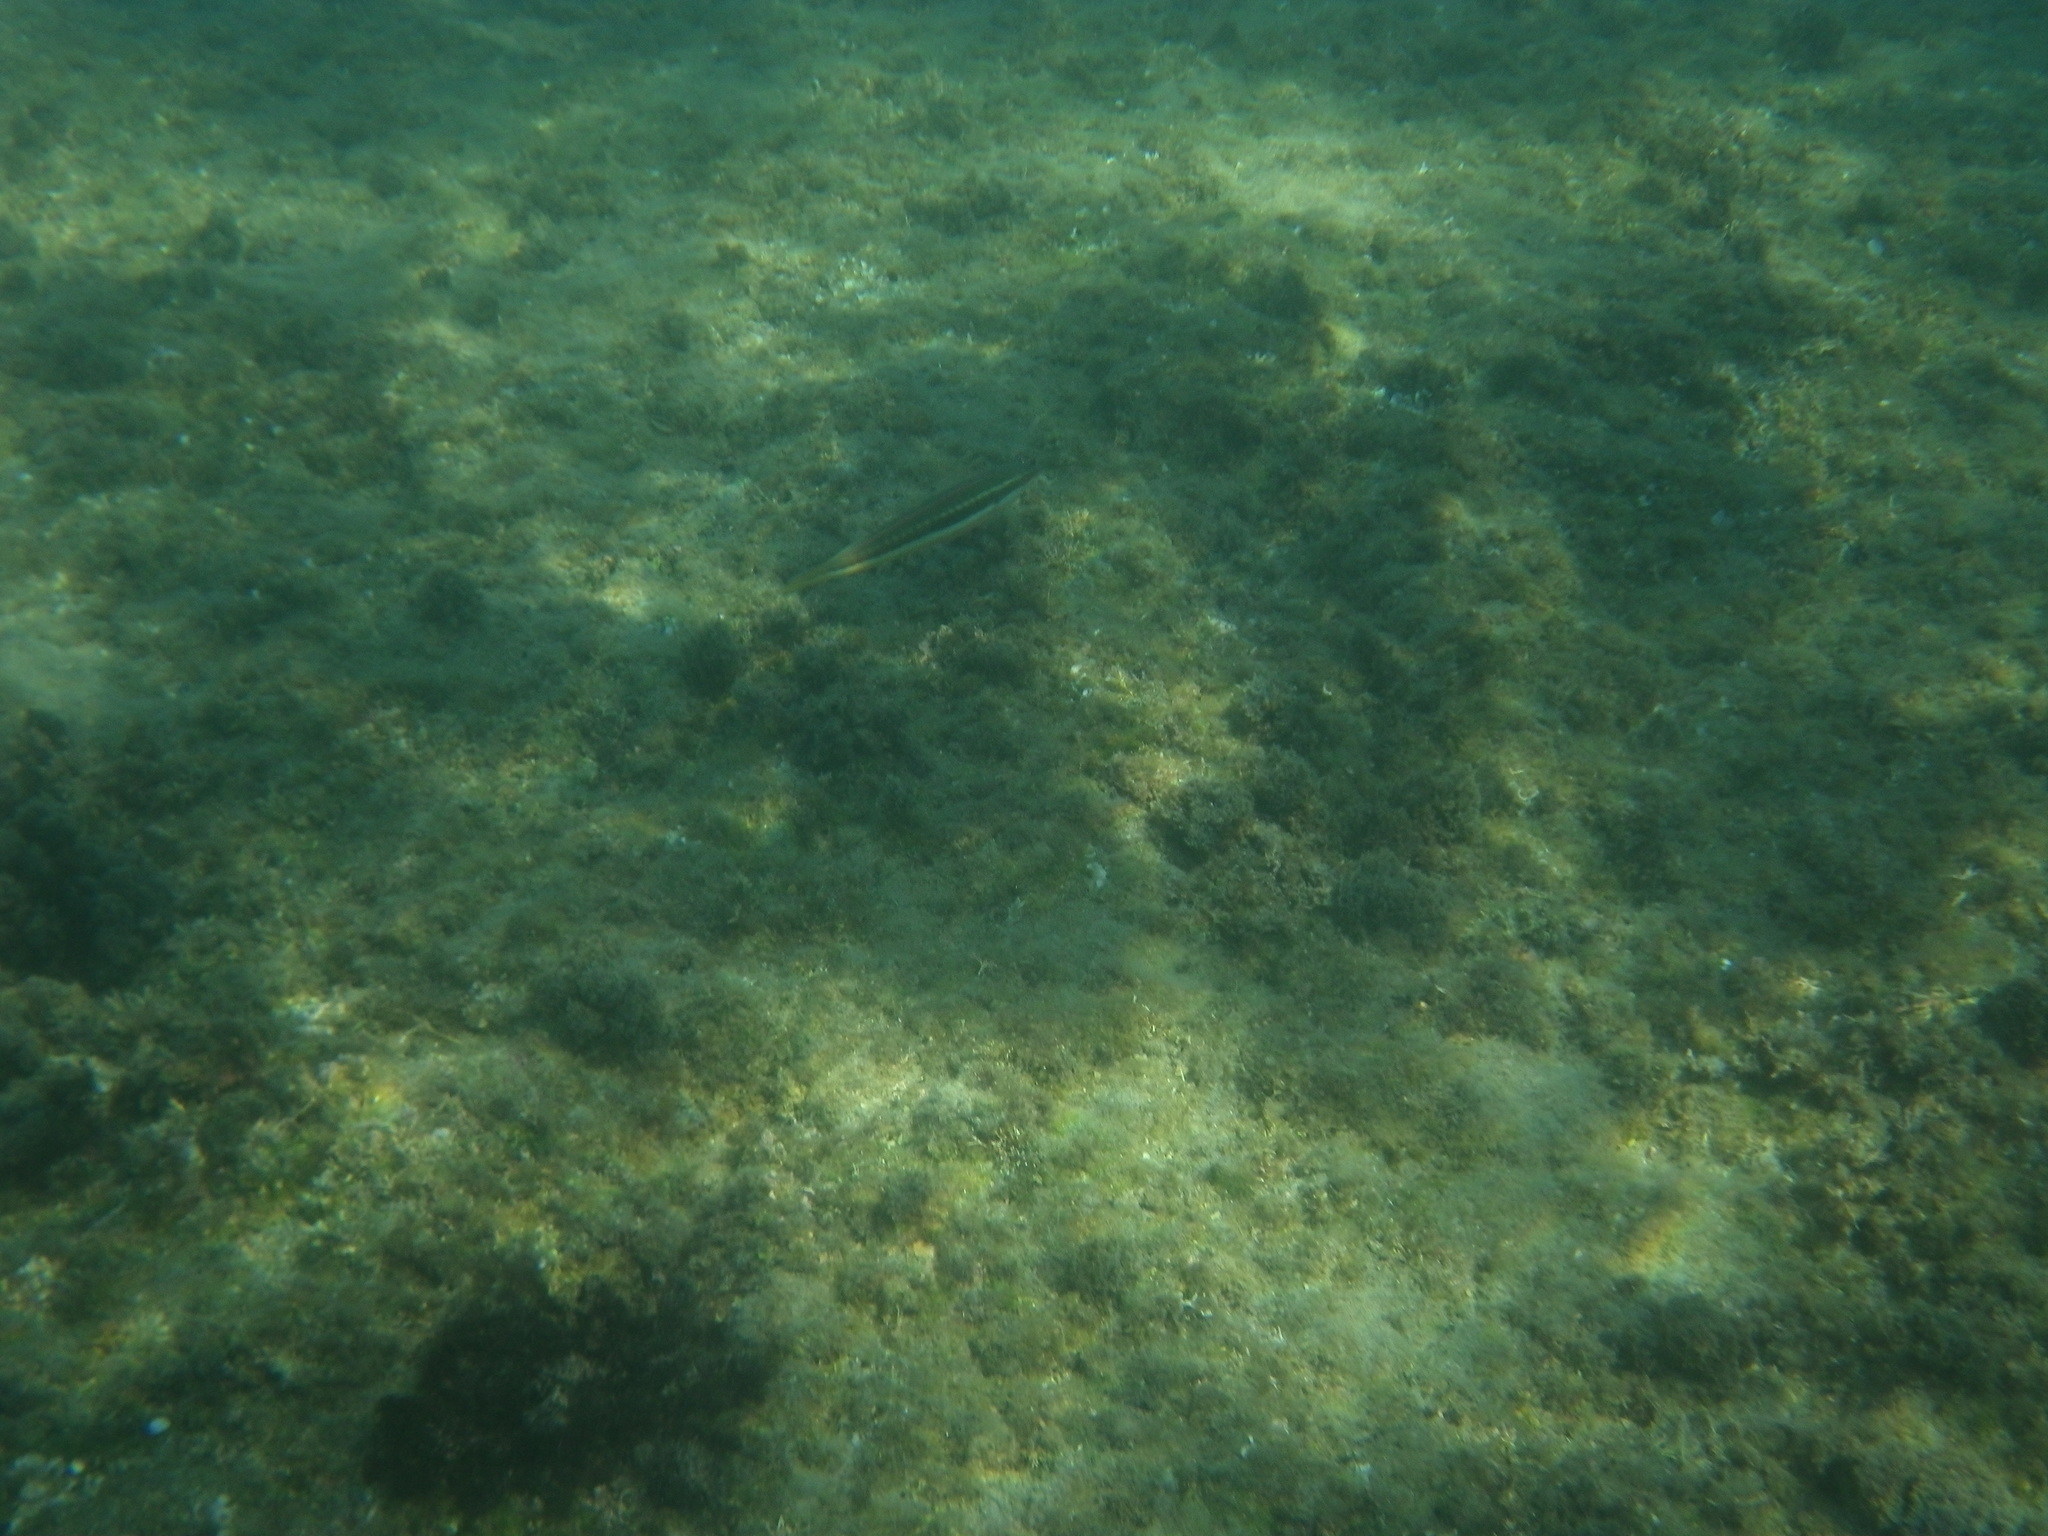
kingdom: Animalia
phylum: Chordata
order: Perciformes
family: Labridae
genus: Coris
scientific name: Coris julis
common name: Rainbow wrasse
